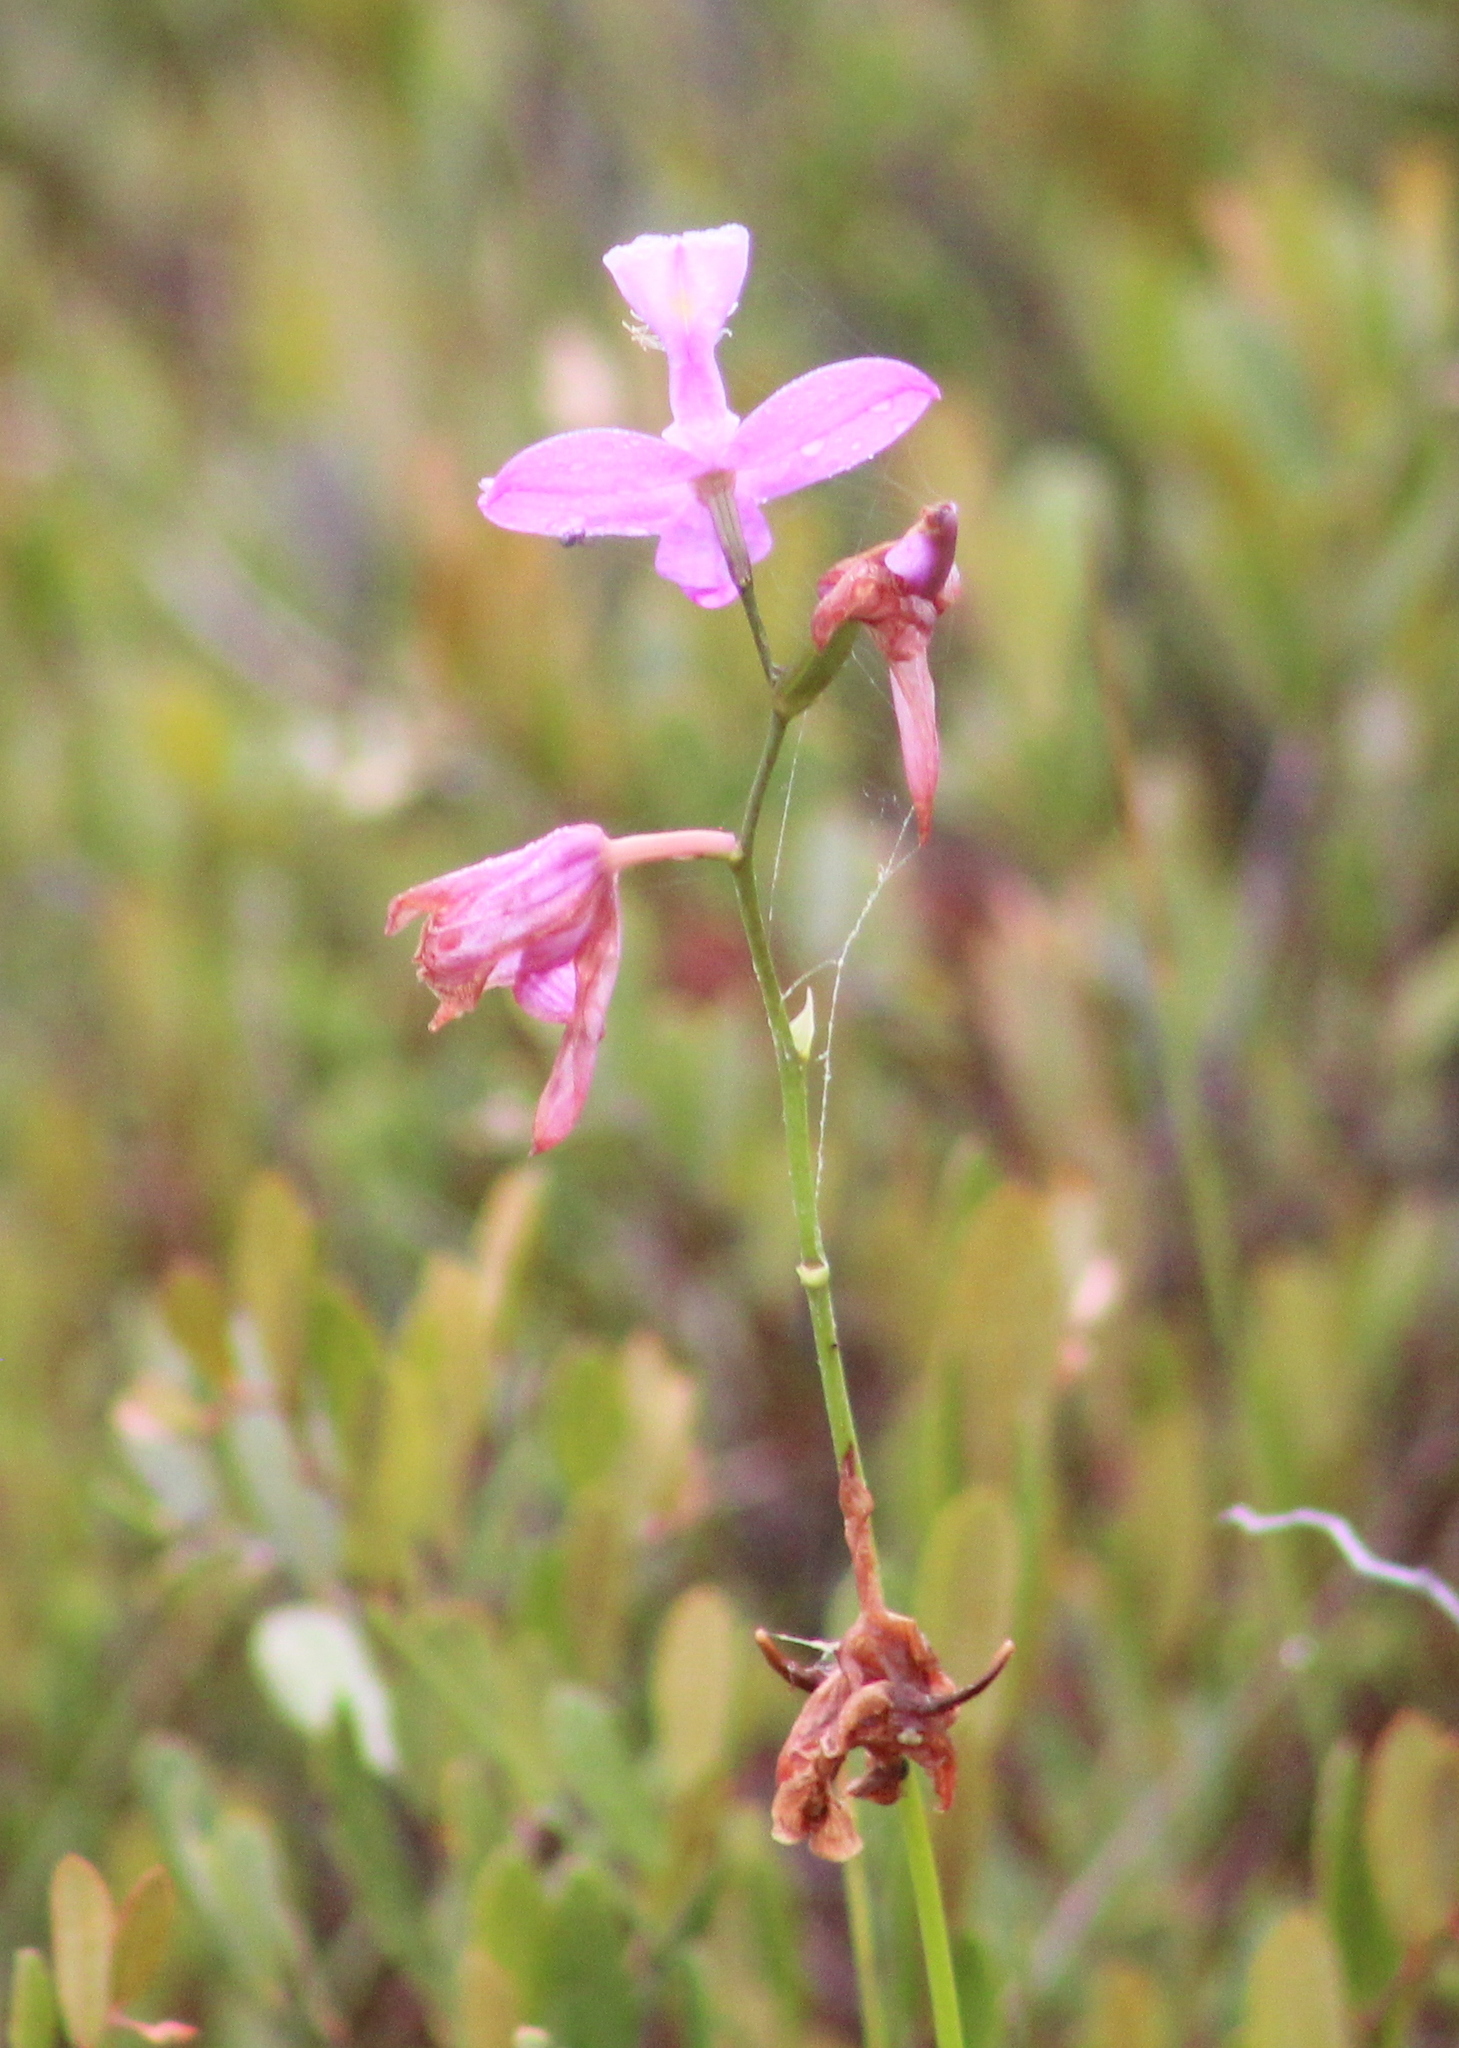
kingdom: Plantae
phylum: Tracheophyta
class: Liliopsida
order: Asparagales
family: Orchidaceae
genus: Calopogon
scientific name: Calopogon tuberosus
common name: Grass-pink
